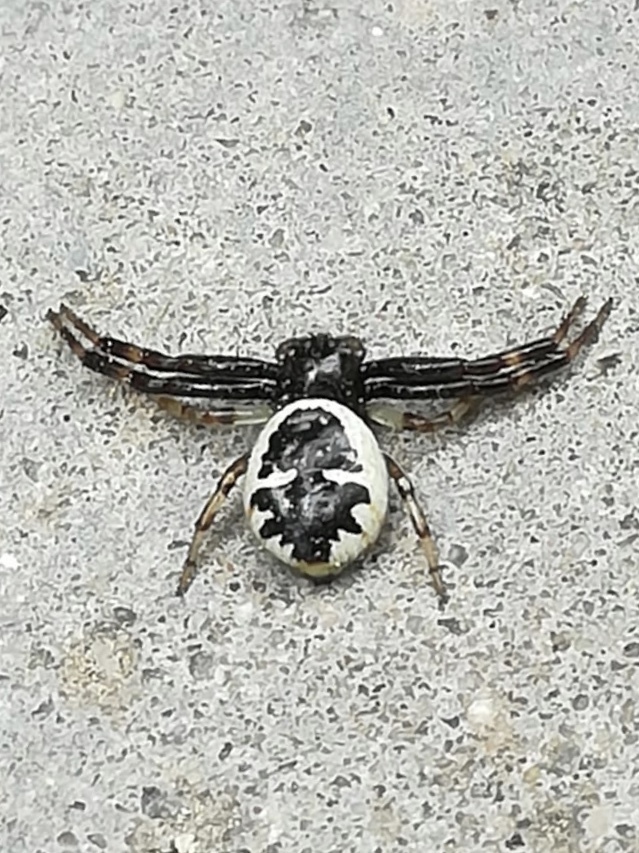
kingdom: Animalia
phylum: Arthropoda
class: Arachnida
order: Araneae
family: Thomisidae
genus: Synema
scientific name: Synema globosum
